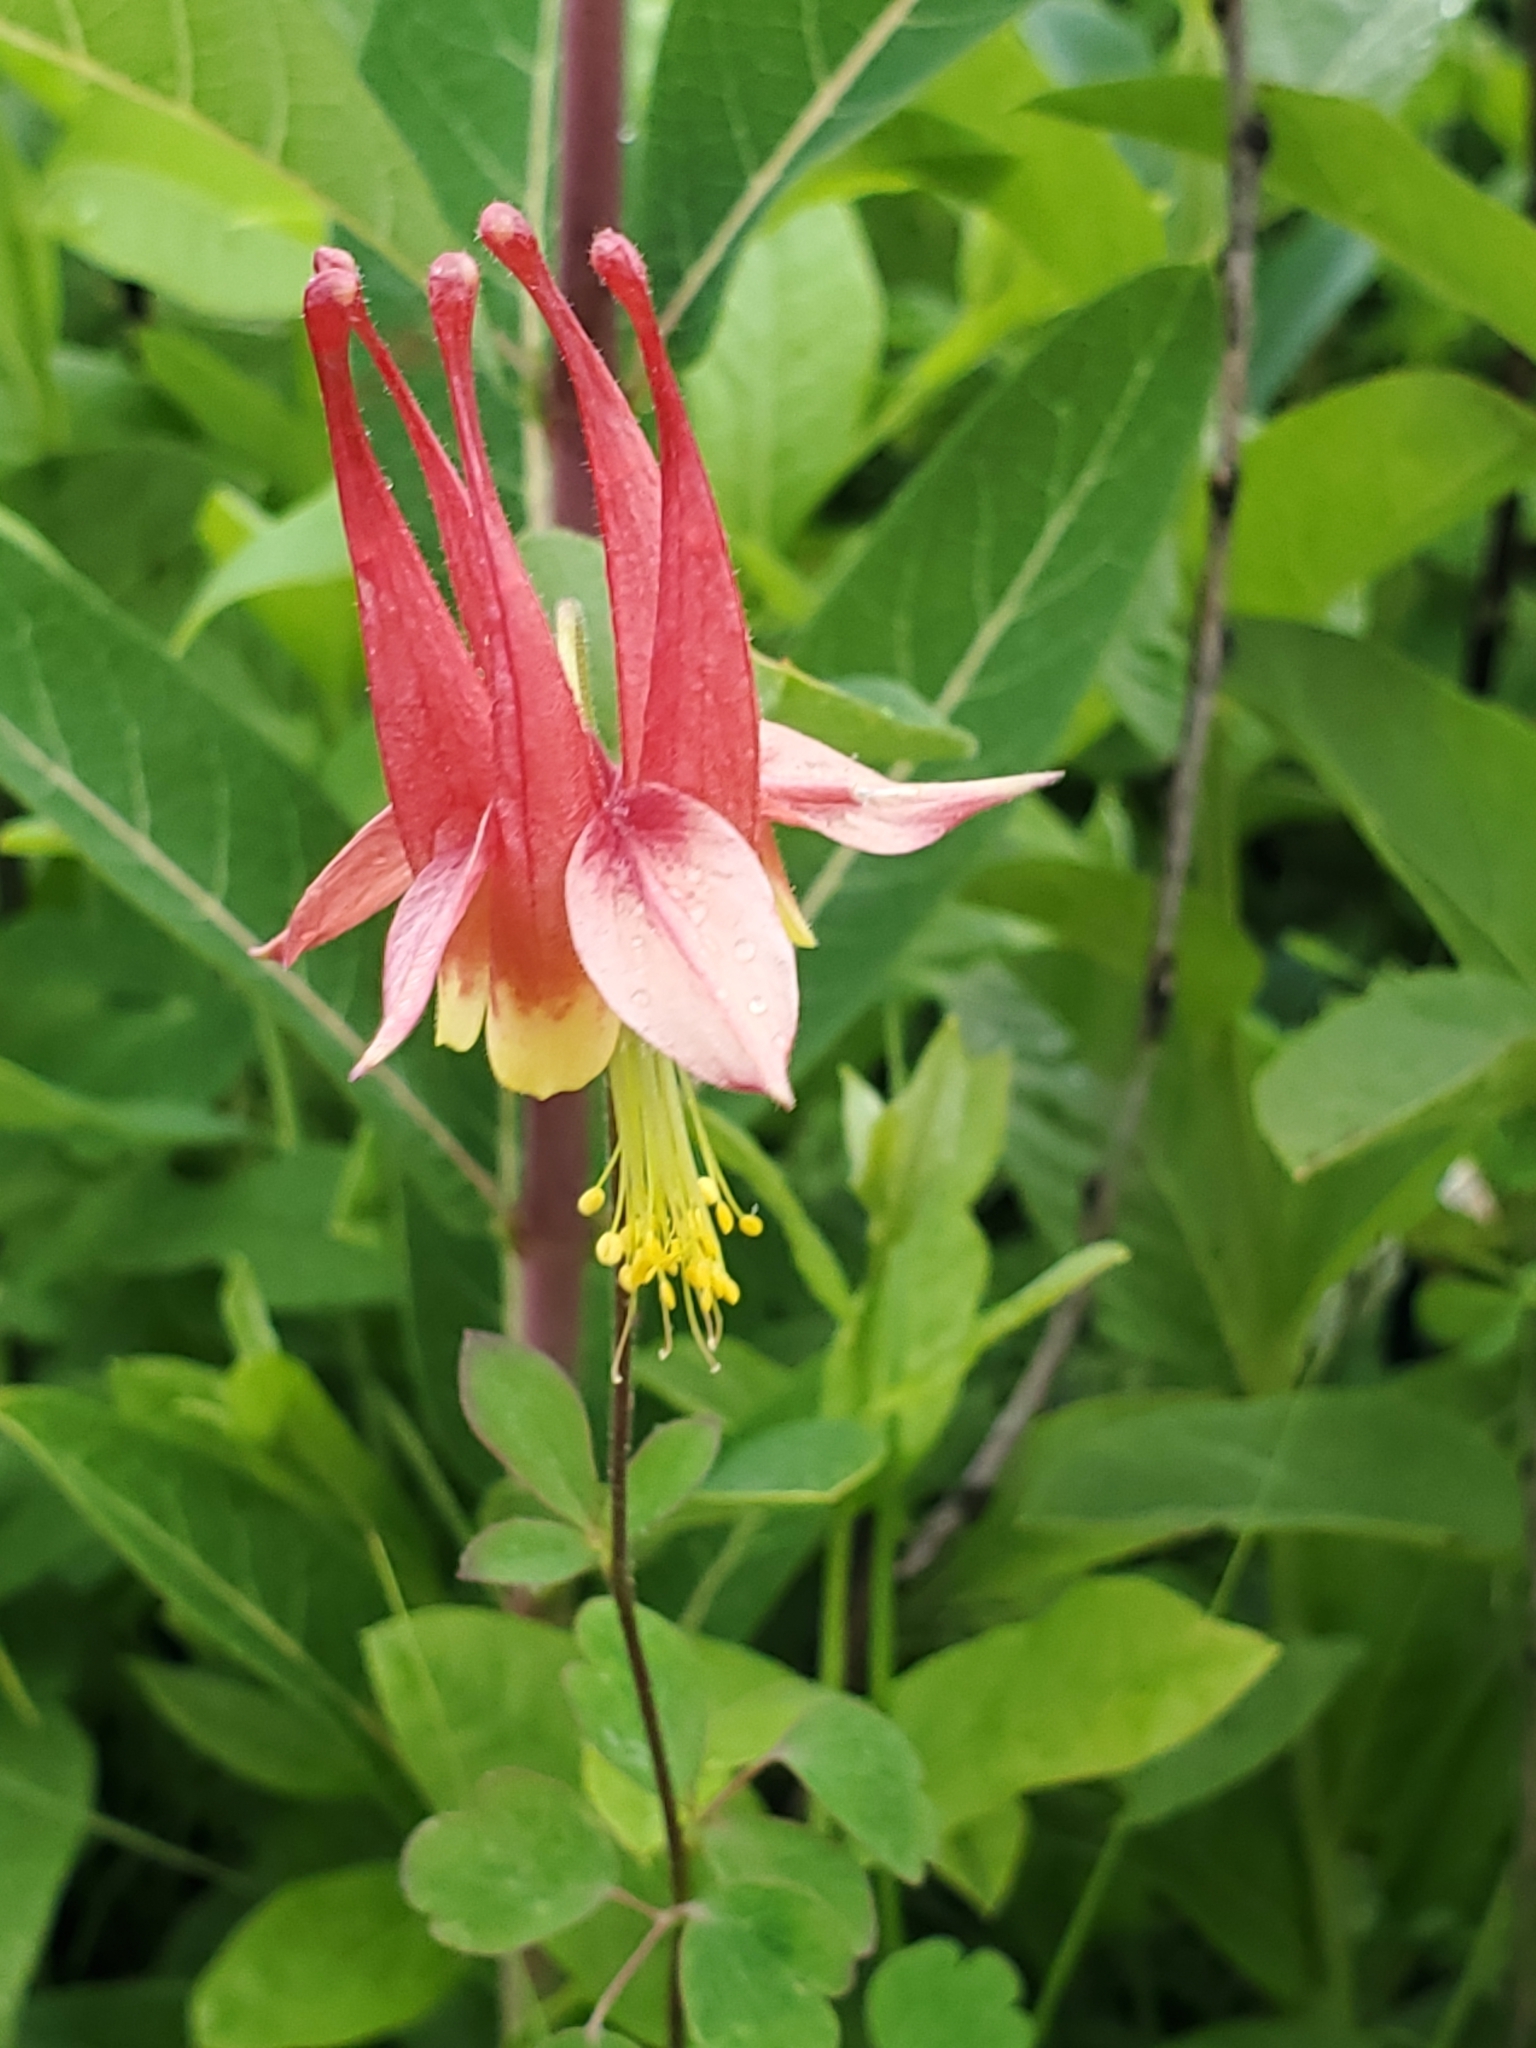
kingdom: Plantae
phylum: Tracheophyta
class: Magnoliopsida
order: Ranunculales
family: Ranunculaceae
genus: Aquilegia
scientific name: Aquilegia canadensis
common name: American columbine
